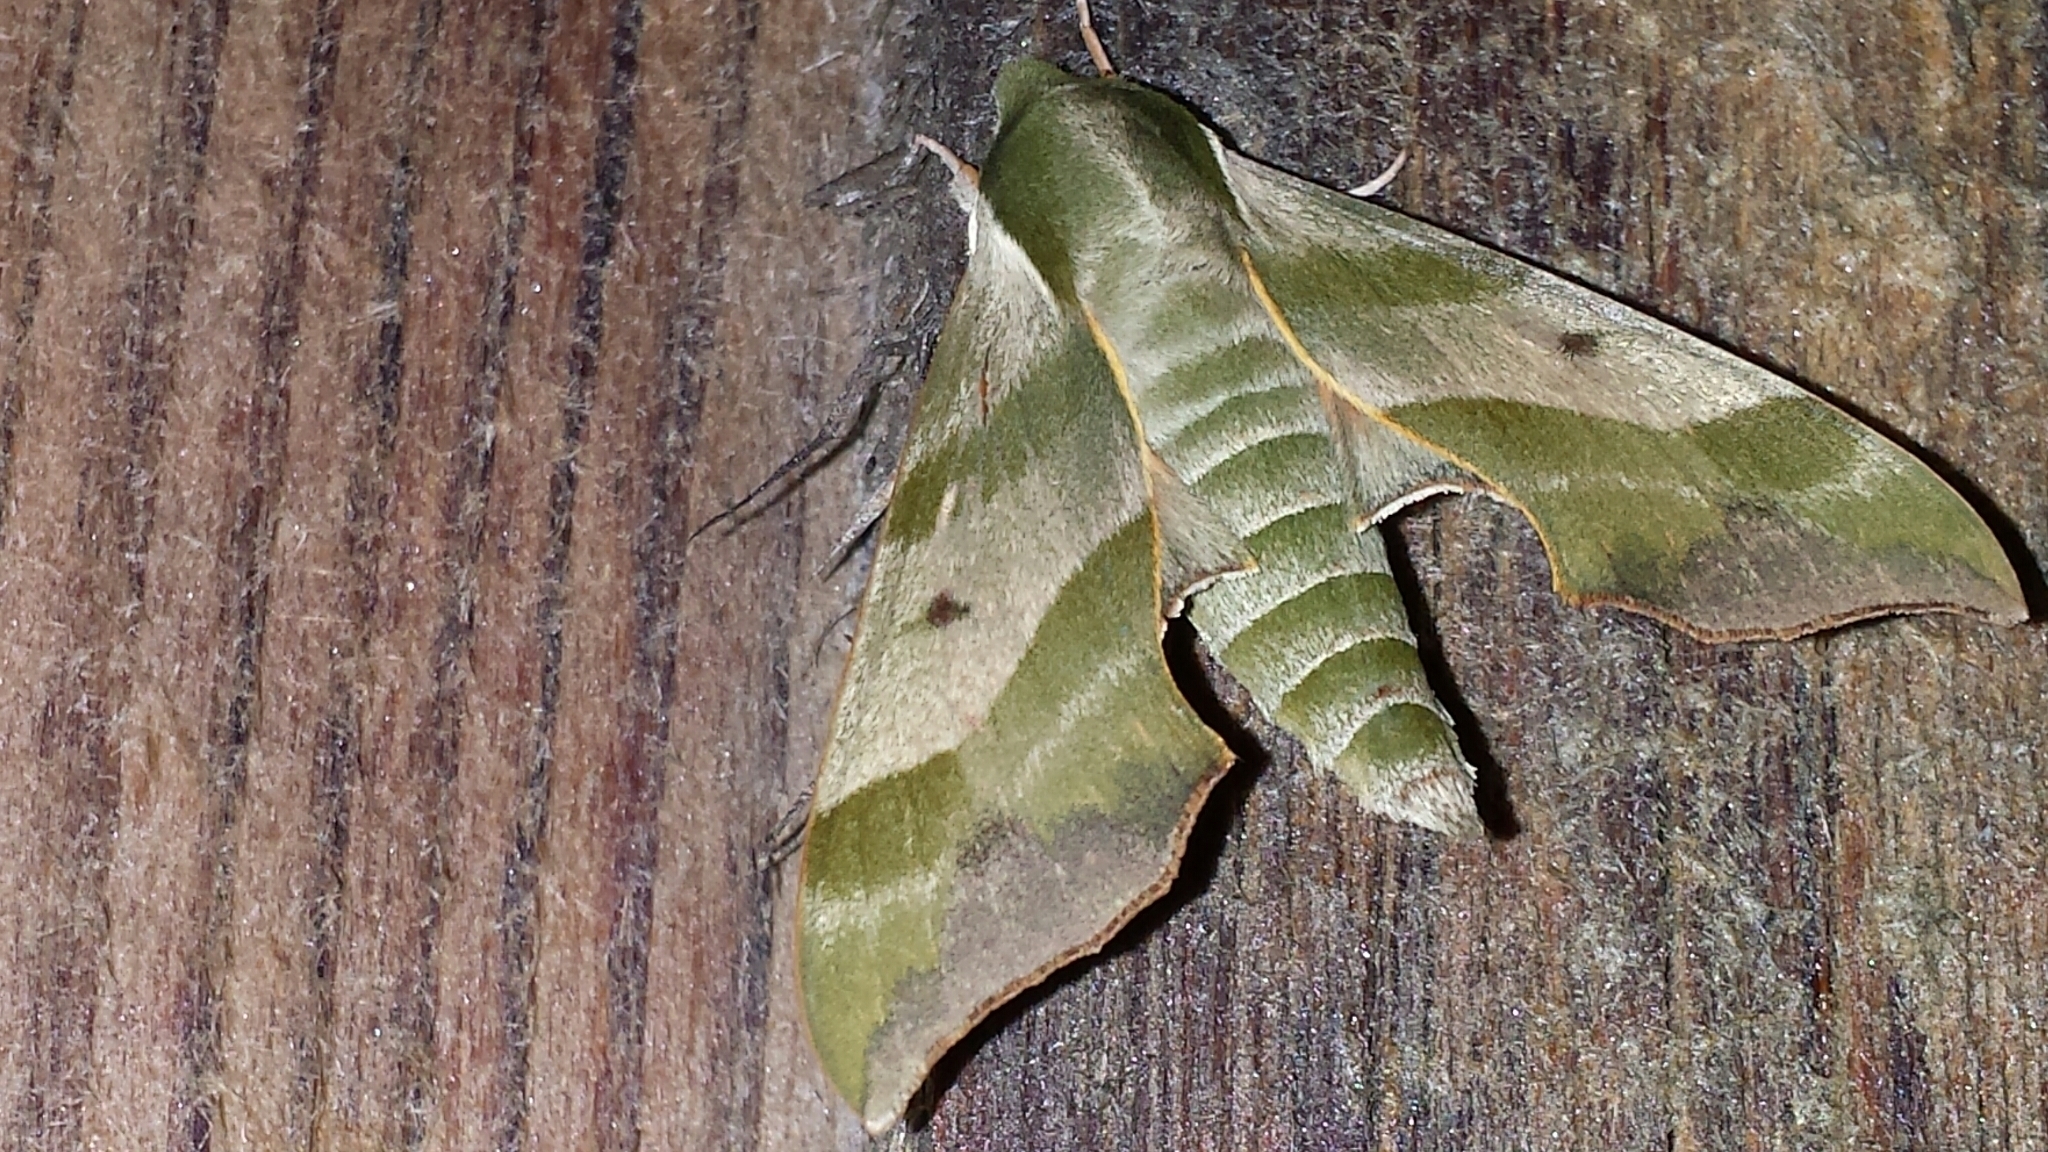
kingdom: Animalia
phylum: Arthropoda
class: Insecta
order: Lepidoptera
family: Sphingidae
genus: Darapsa
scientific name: Darapsa myron
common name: Hog sphinx
